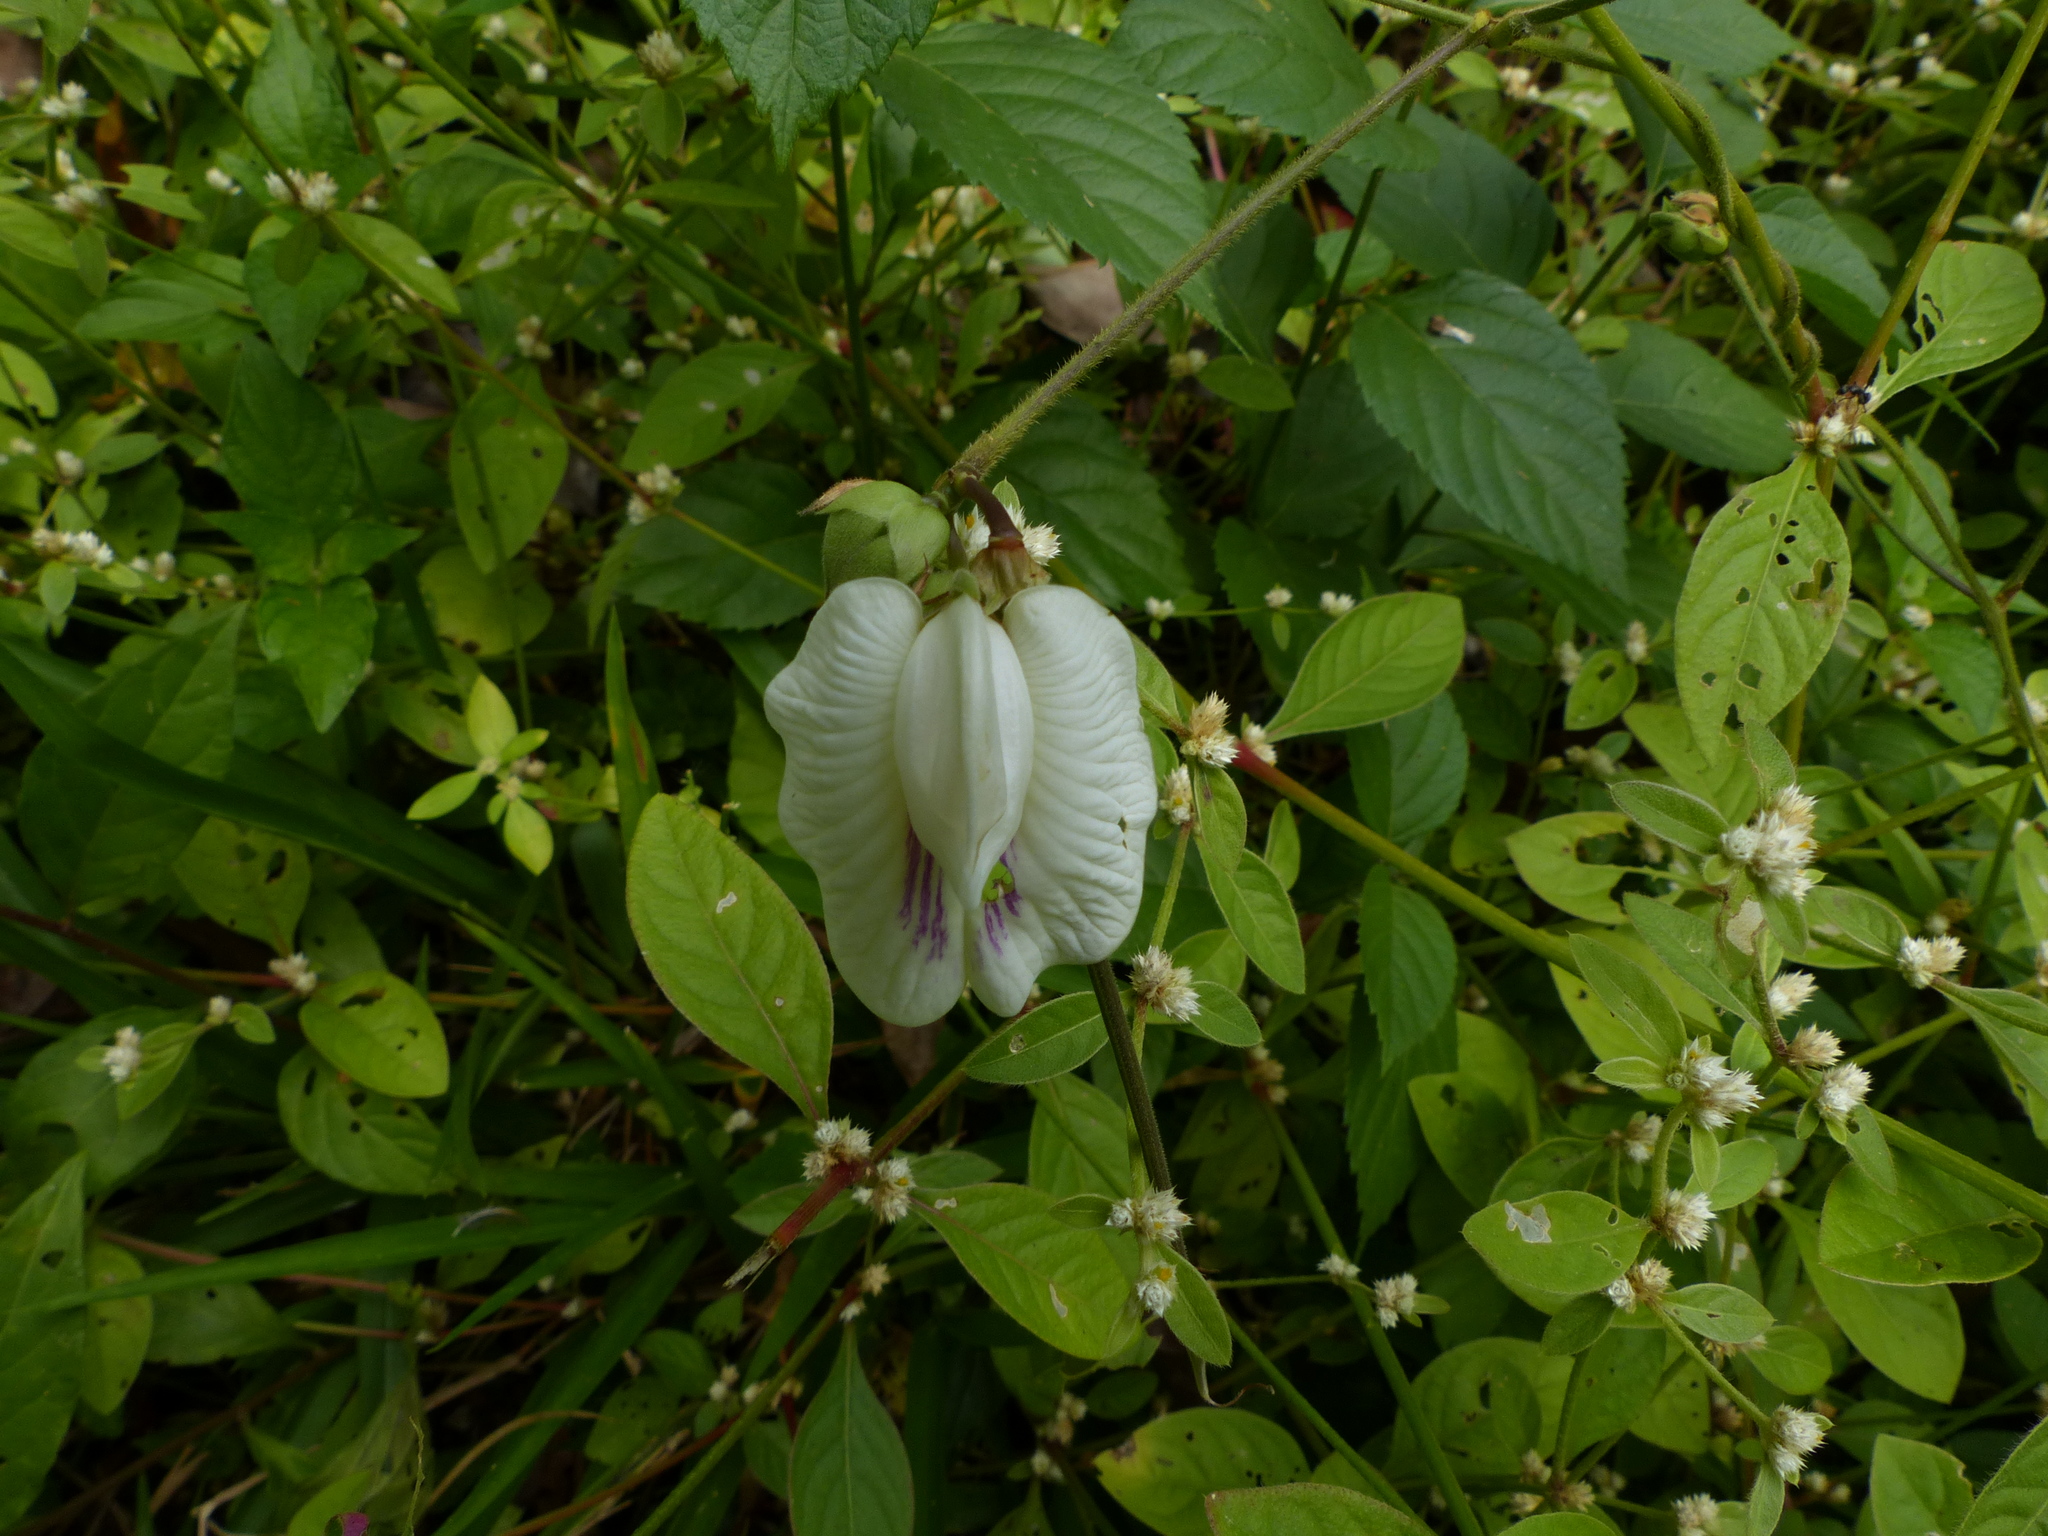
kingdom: Plantae
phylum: Tracheophyta
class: Magnoliopsida
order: Fabales
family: Fabaceae
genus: Centrosema
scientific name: Centrosema pubescens
